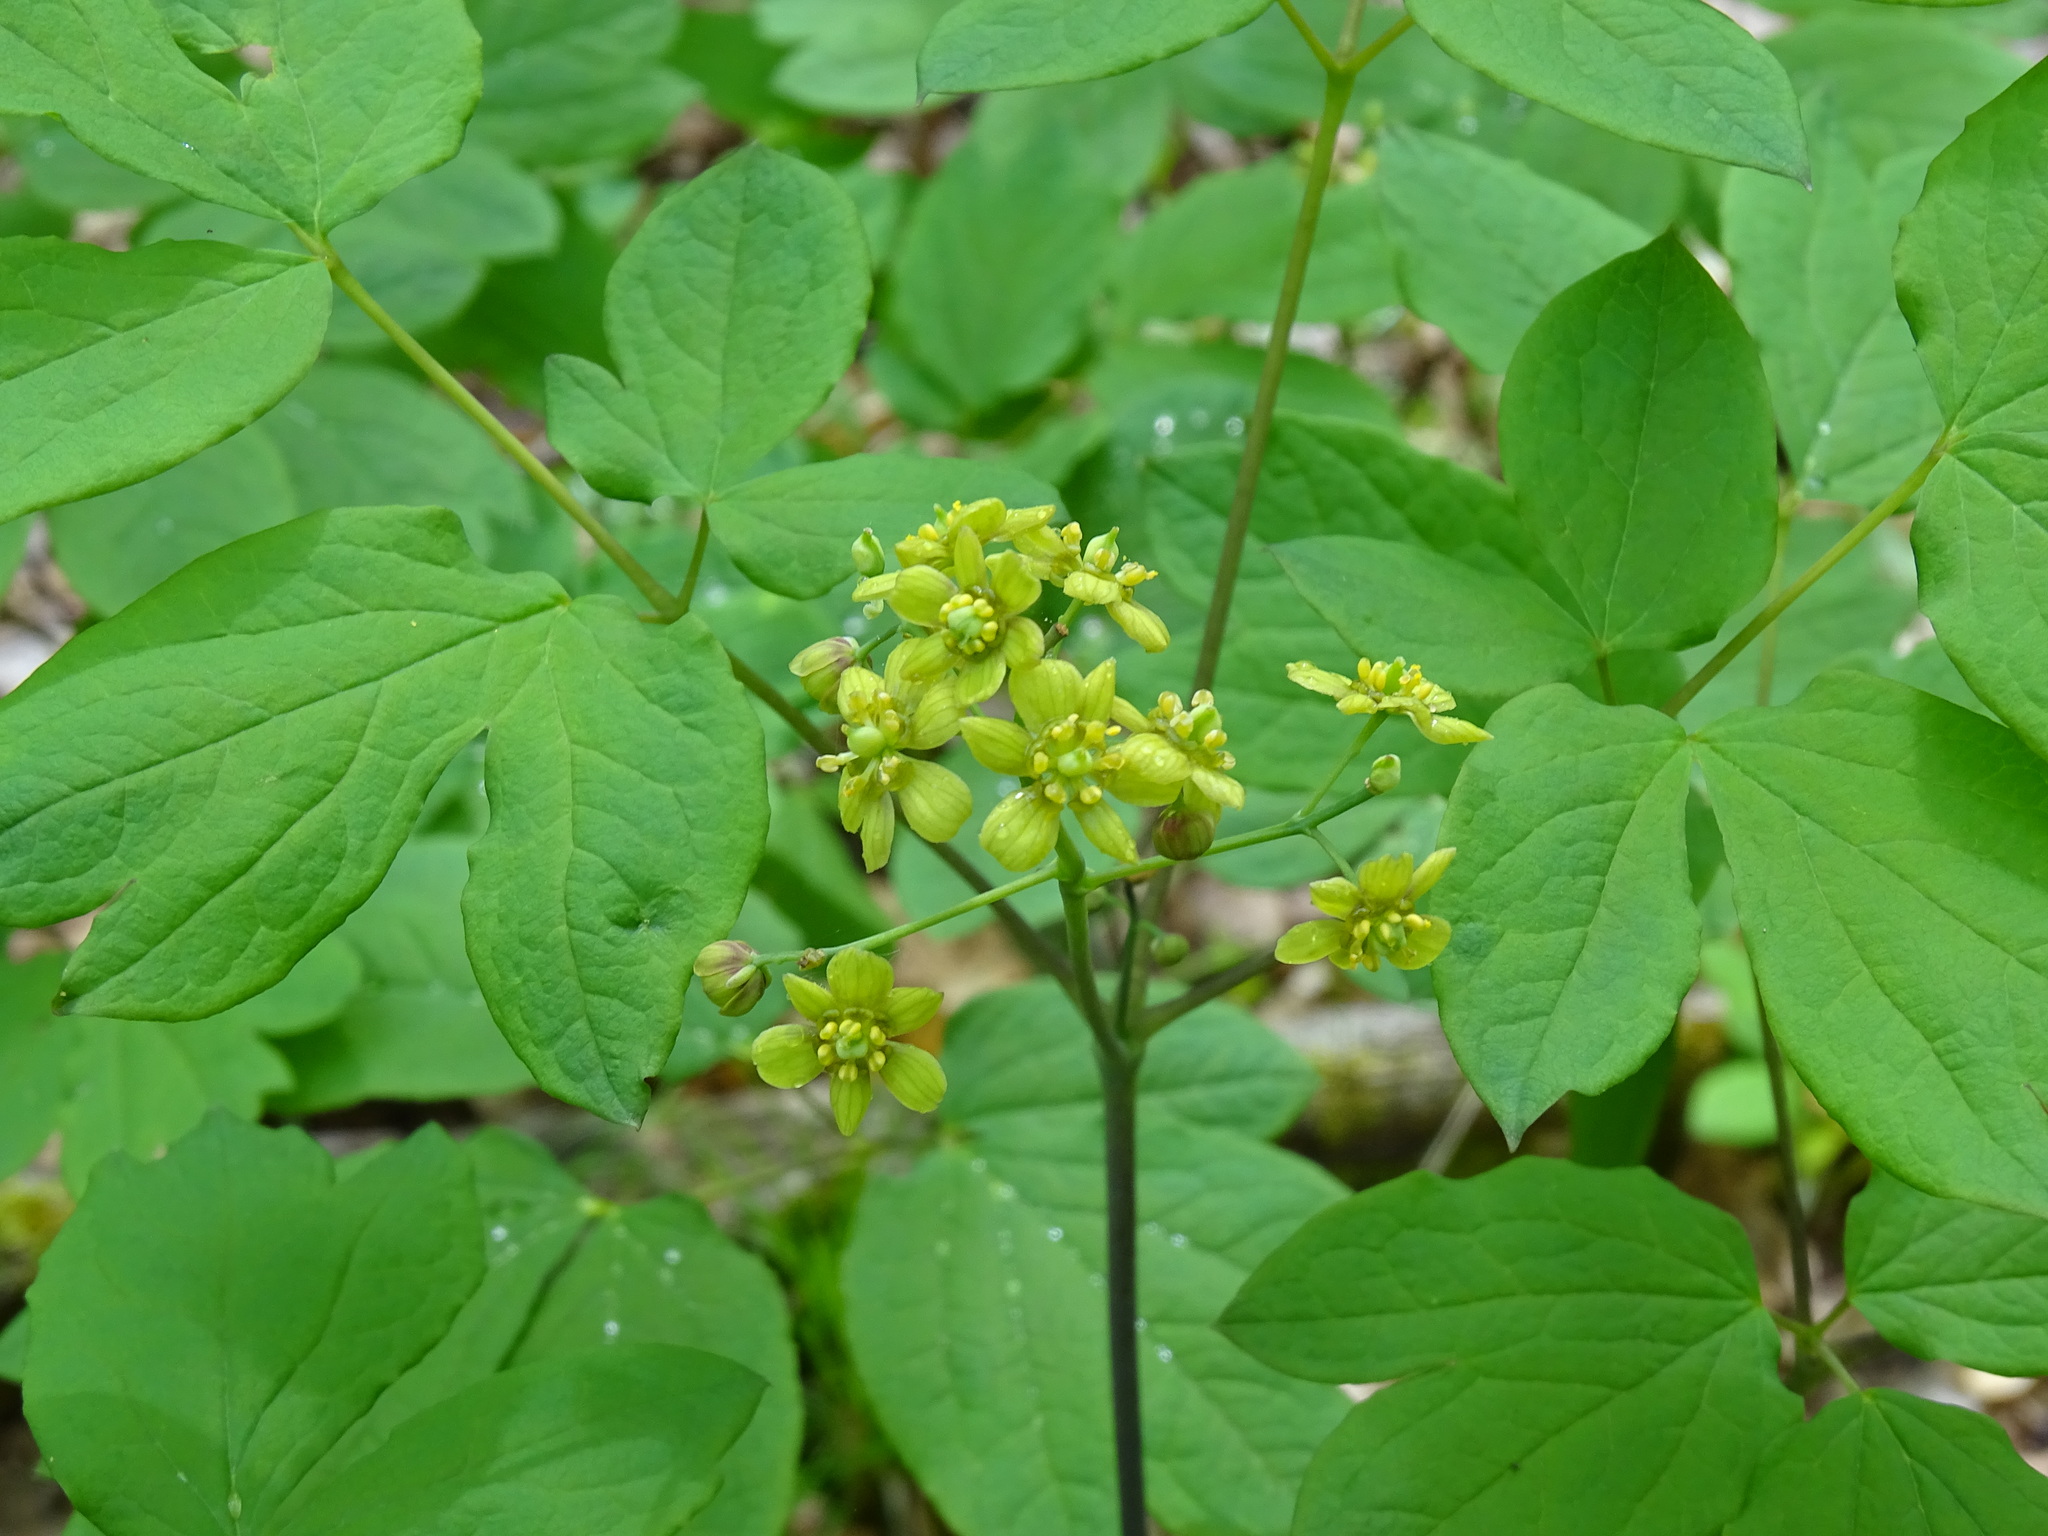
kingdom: Plantae
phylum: Tracheophyta
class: Magnoliopsida
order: Ranunculales
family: Berberidaceae
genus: Caulophyllum
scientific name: Caulophyllum thalictroides
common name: Blue cohosh
